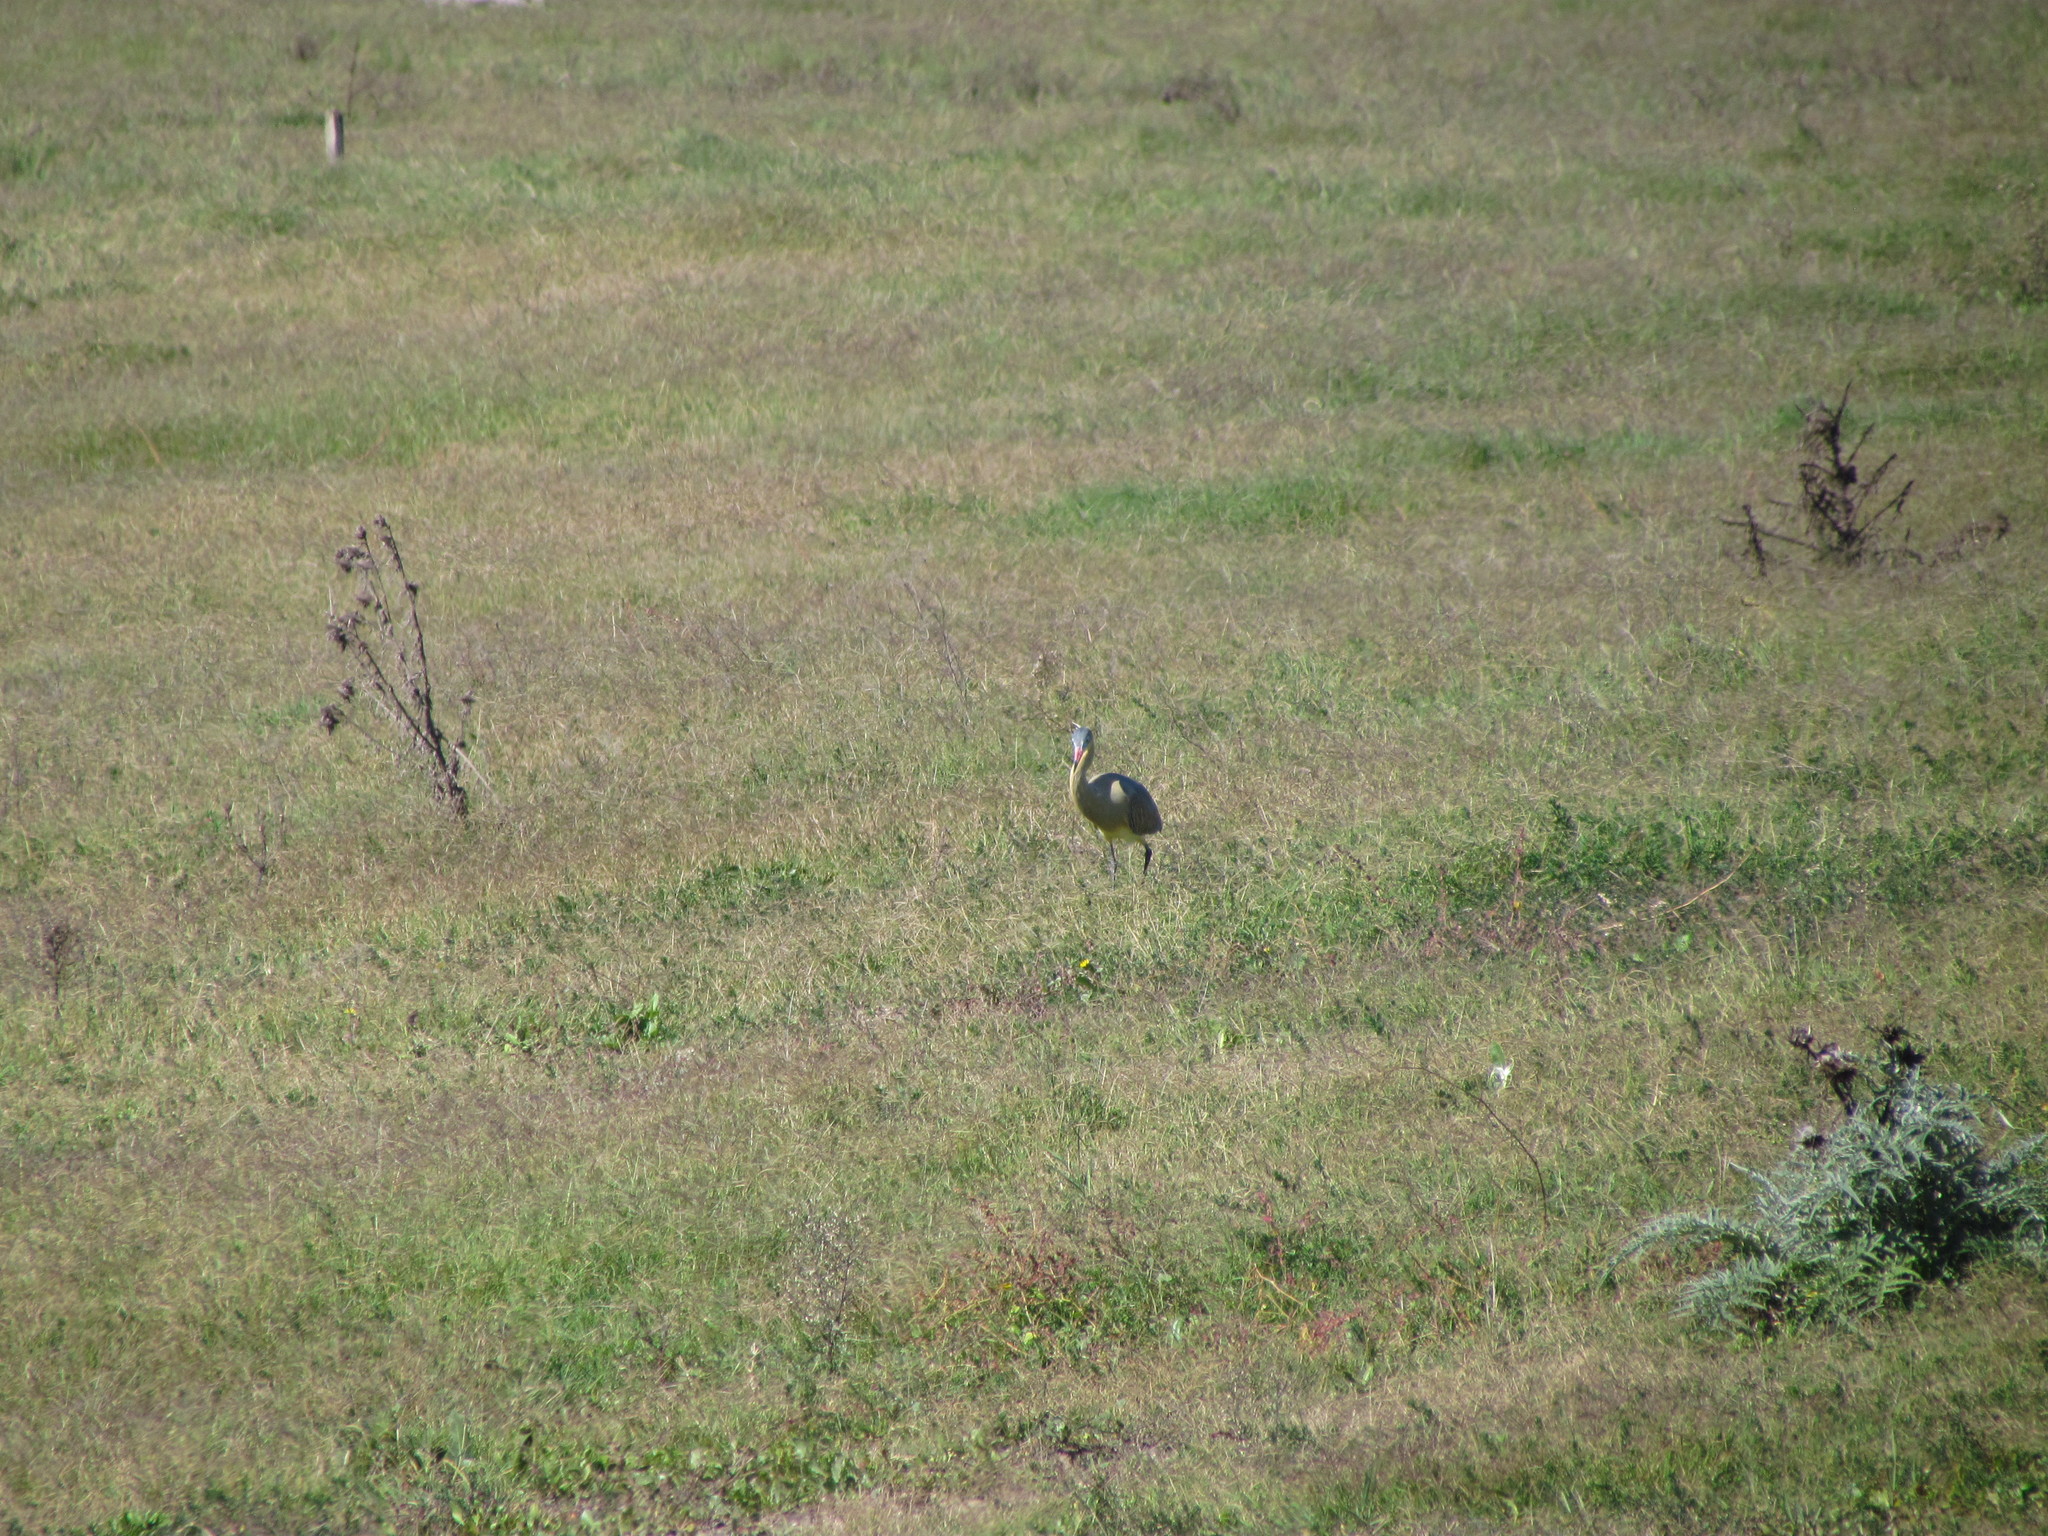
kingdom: Animalia
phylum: Chordata
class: Aves
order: Pelecaniformes
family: Ardeidae
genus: Syrigma
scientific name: Syrigma sibilatrix
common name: Whistling heron
